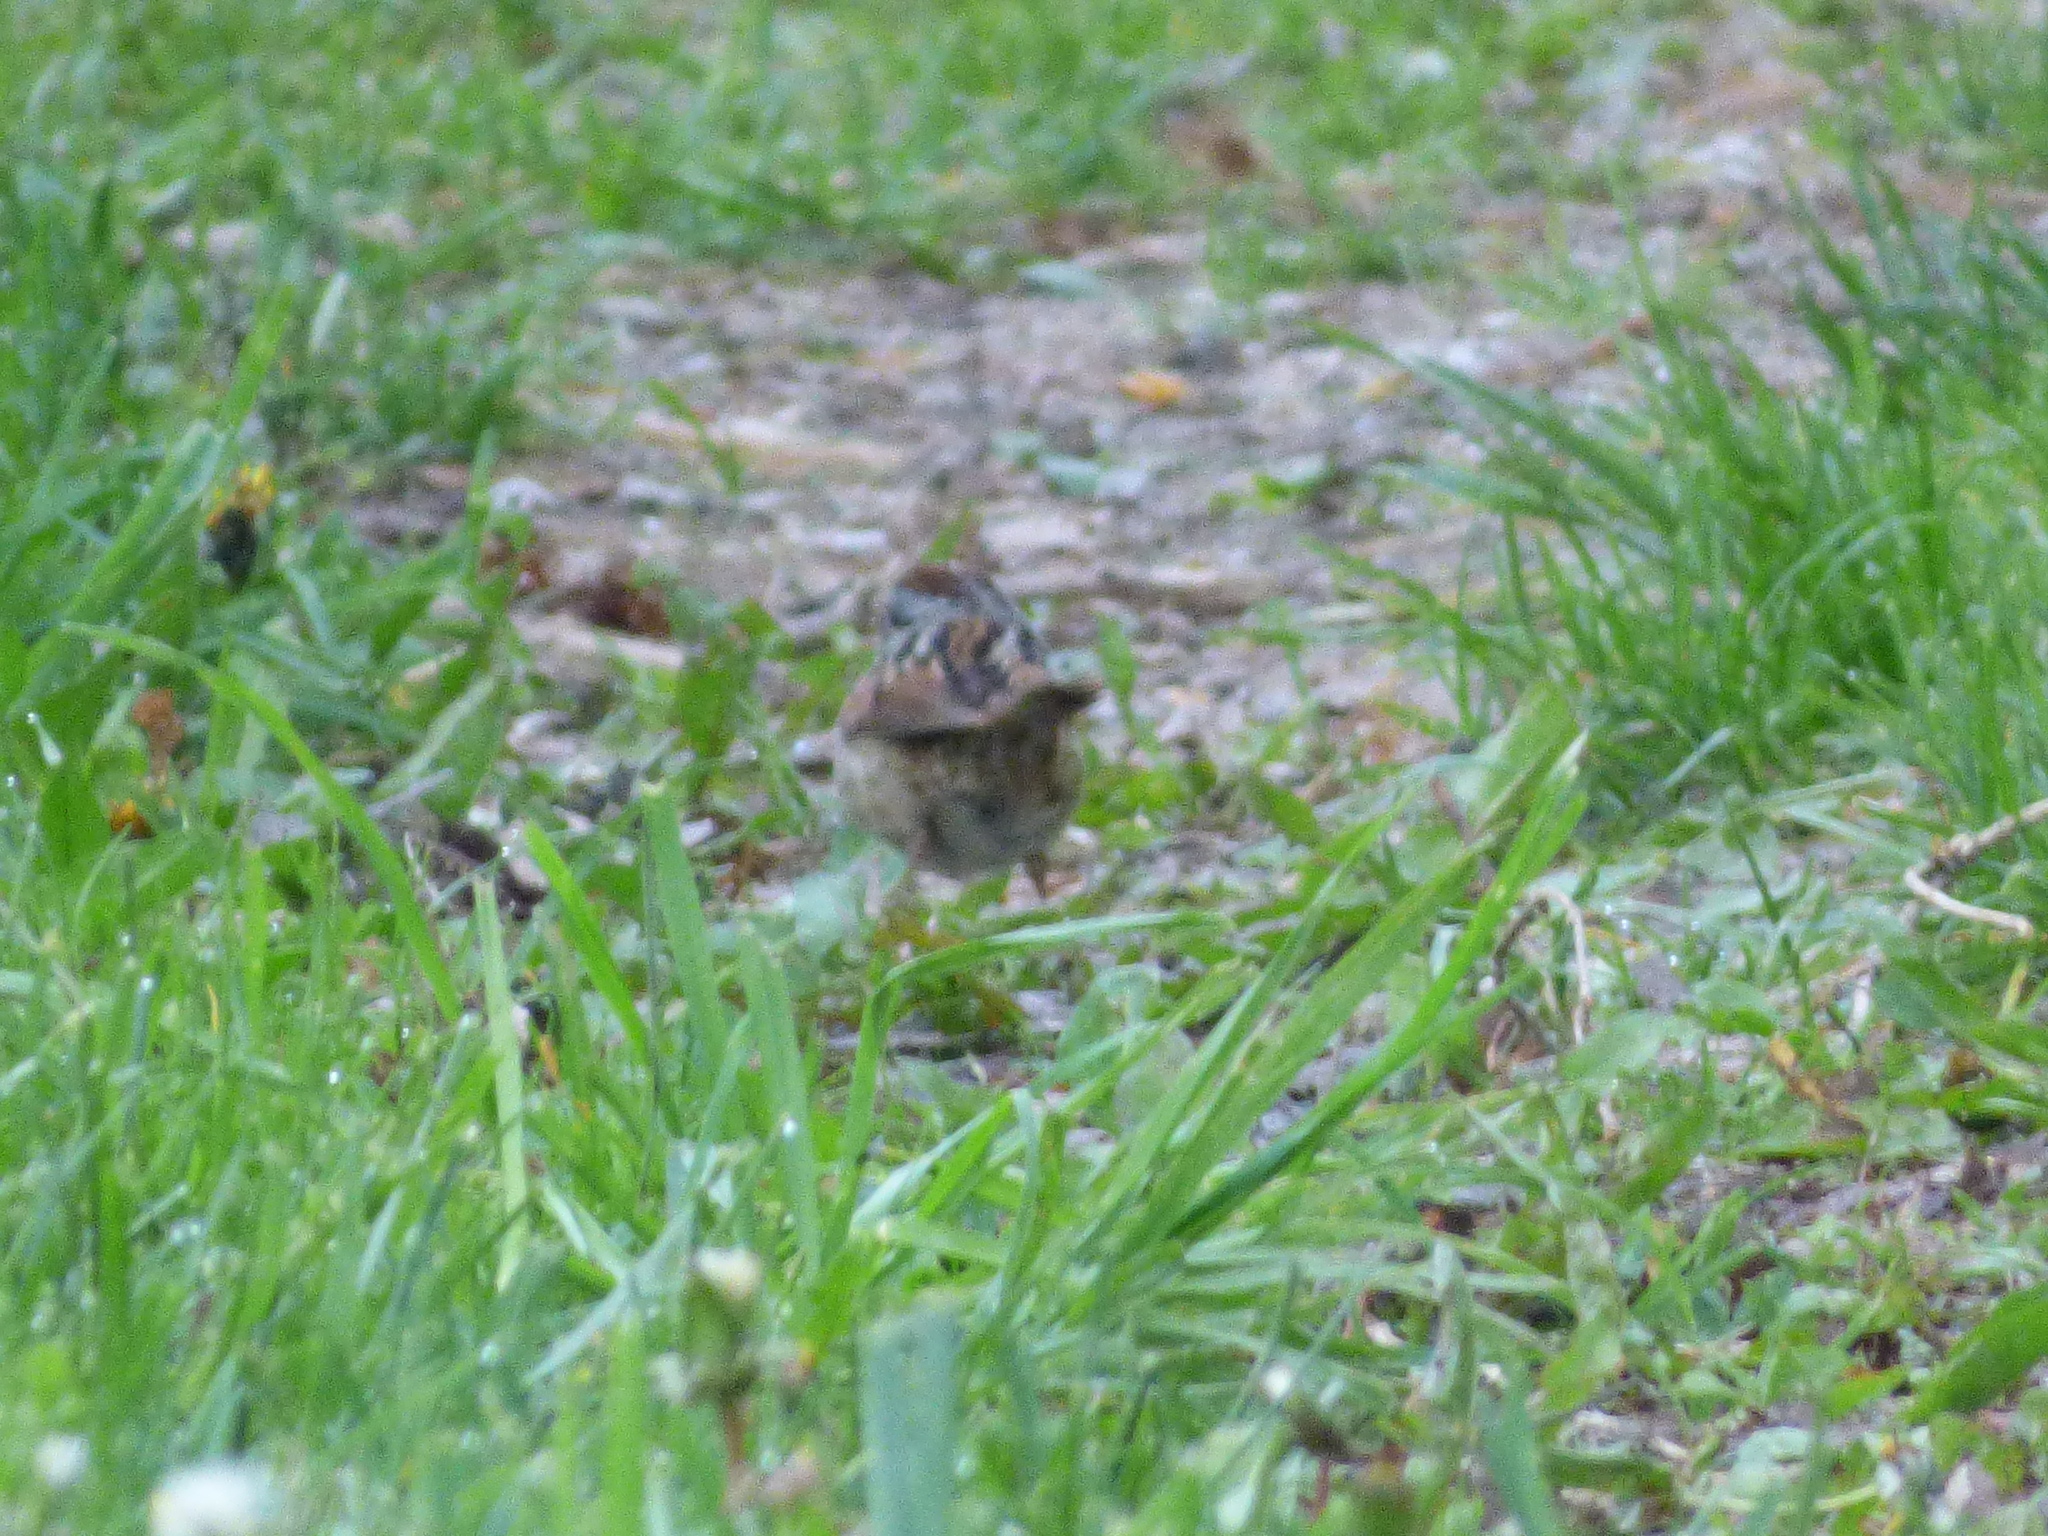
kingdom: Animalia
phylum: Chordata
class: Aves
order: Passeriformes
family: Passerellidae
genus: Melospiza
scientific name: Melospiza georgiana
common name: Swamp sparrow
